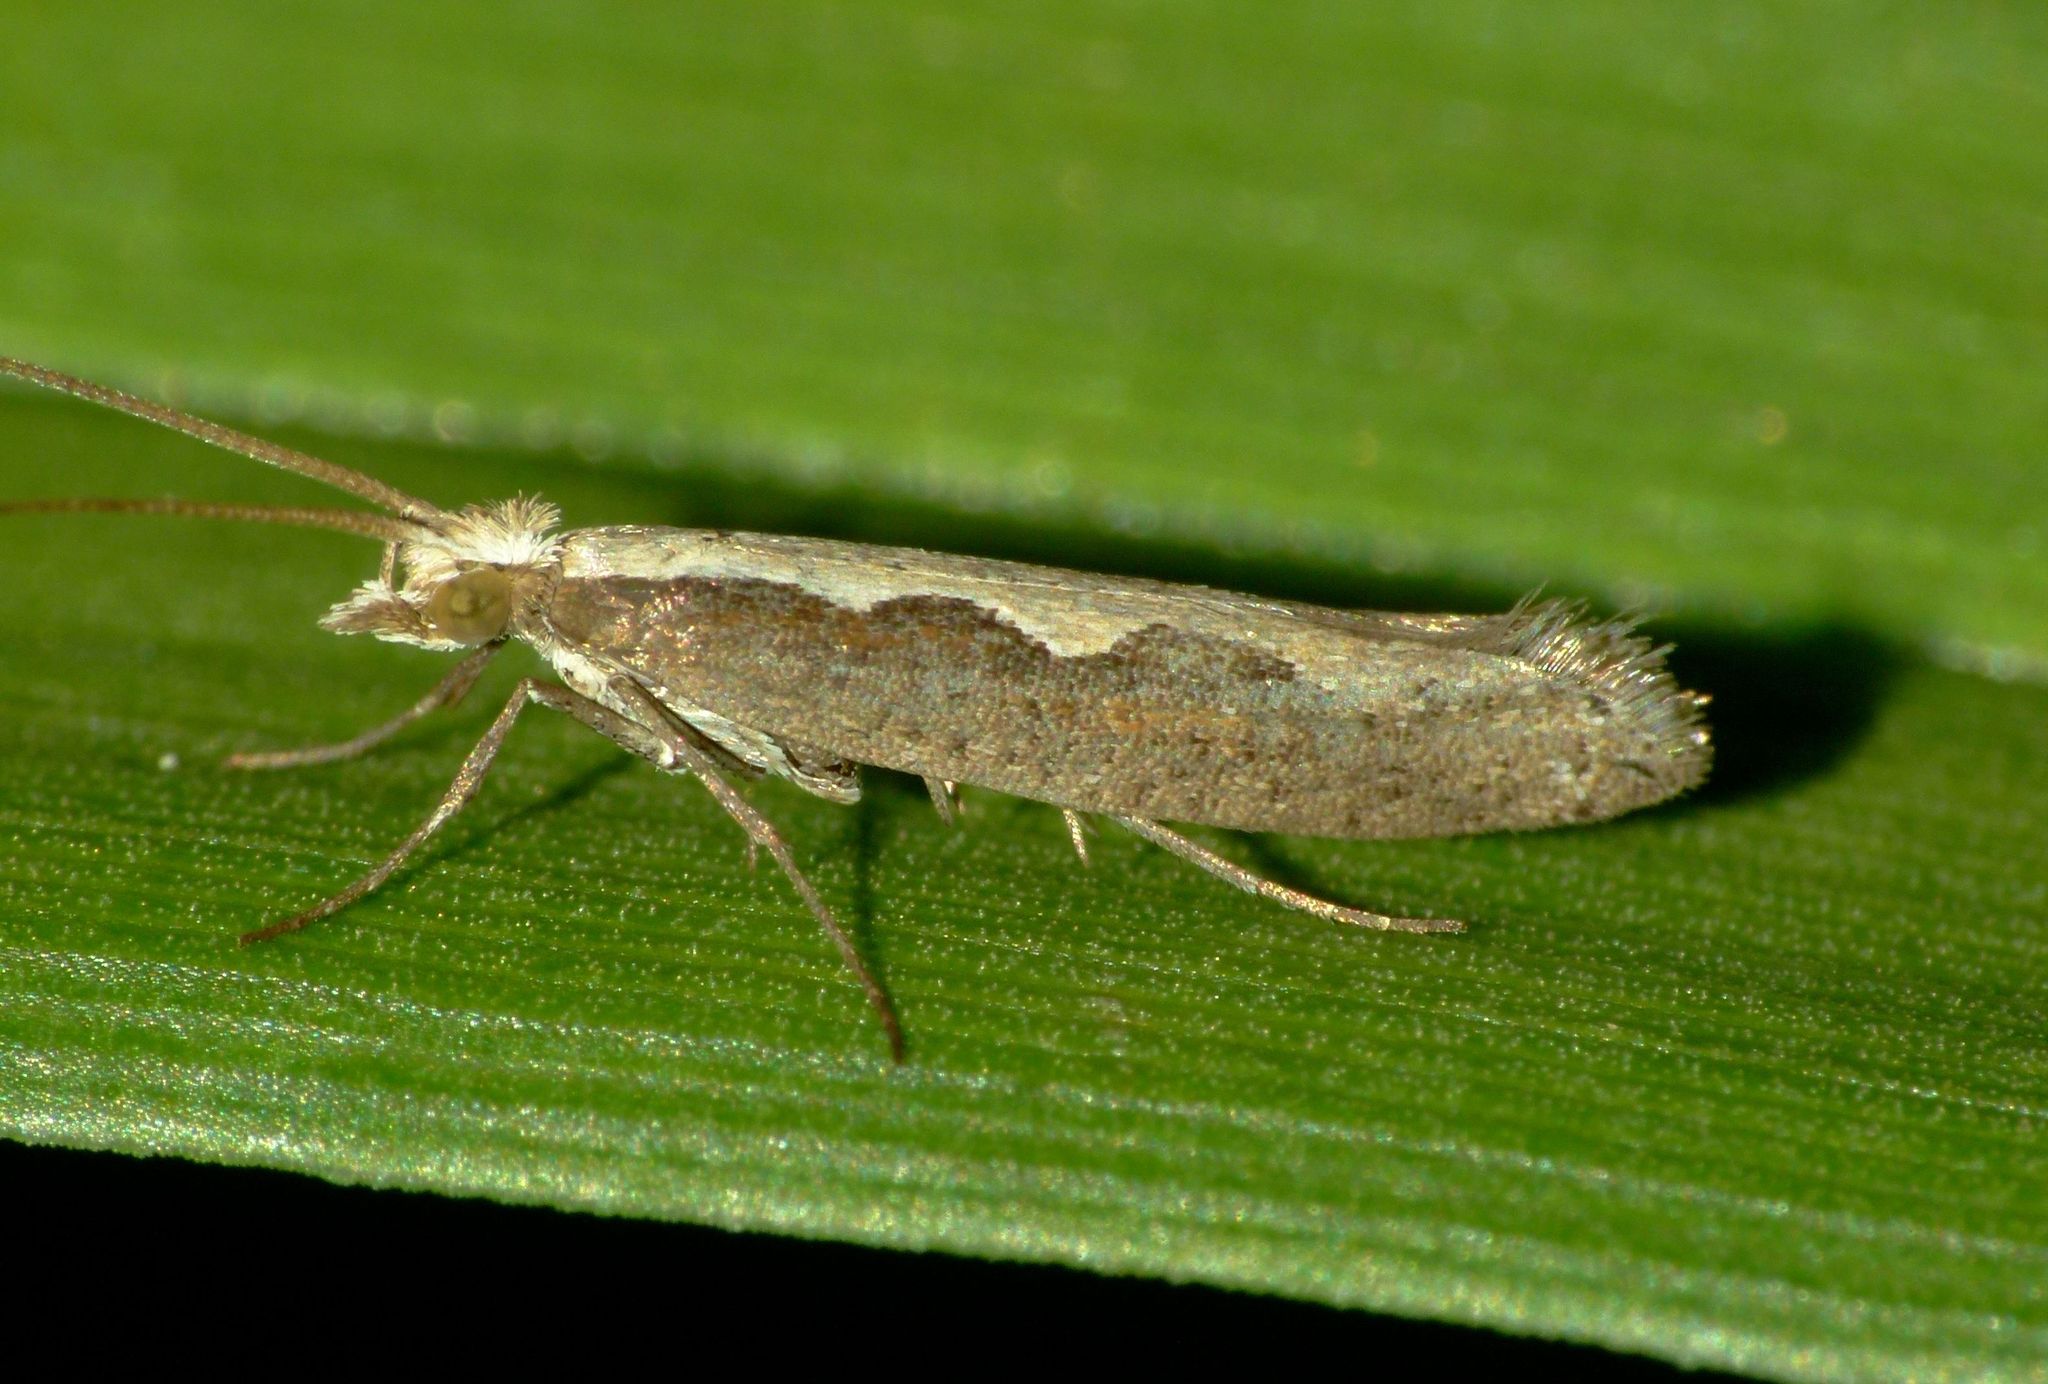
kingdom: Animalia
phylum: Arthropoda
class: Insecta
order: Lepidoptera
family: Plutellidae
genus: Plutella
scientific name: Plutella xylostella
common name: Diamond-back moth
